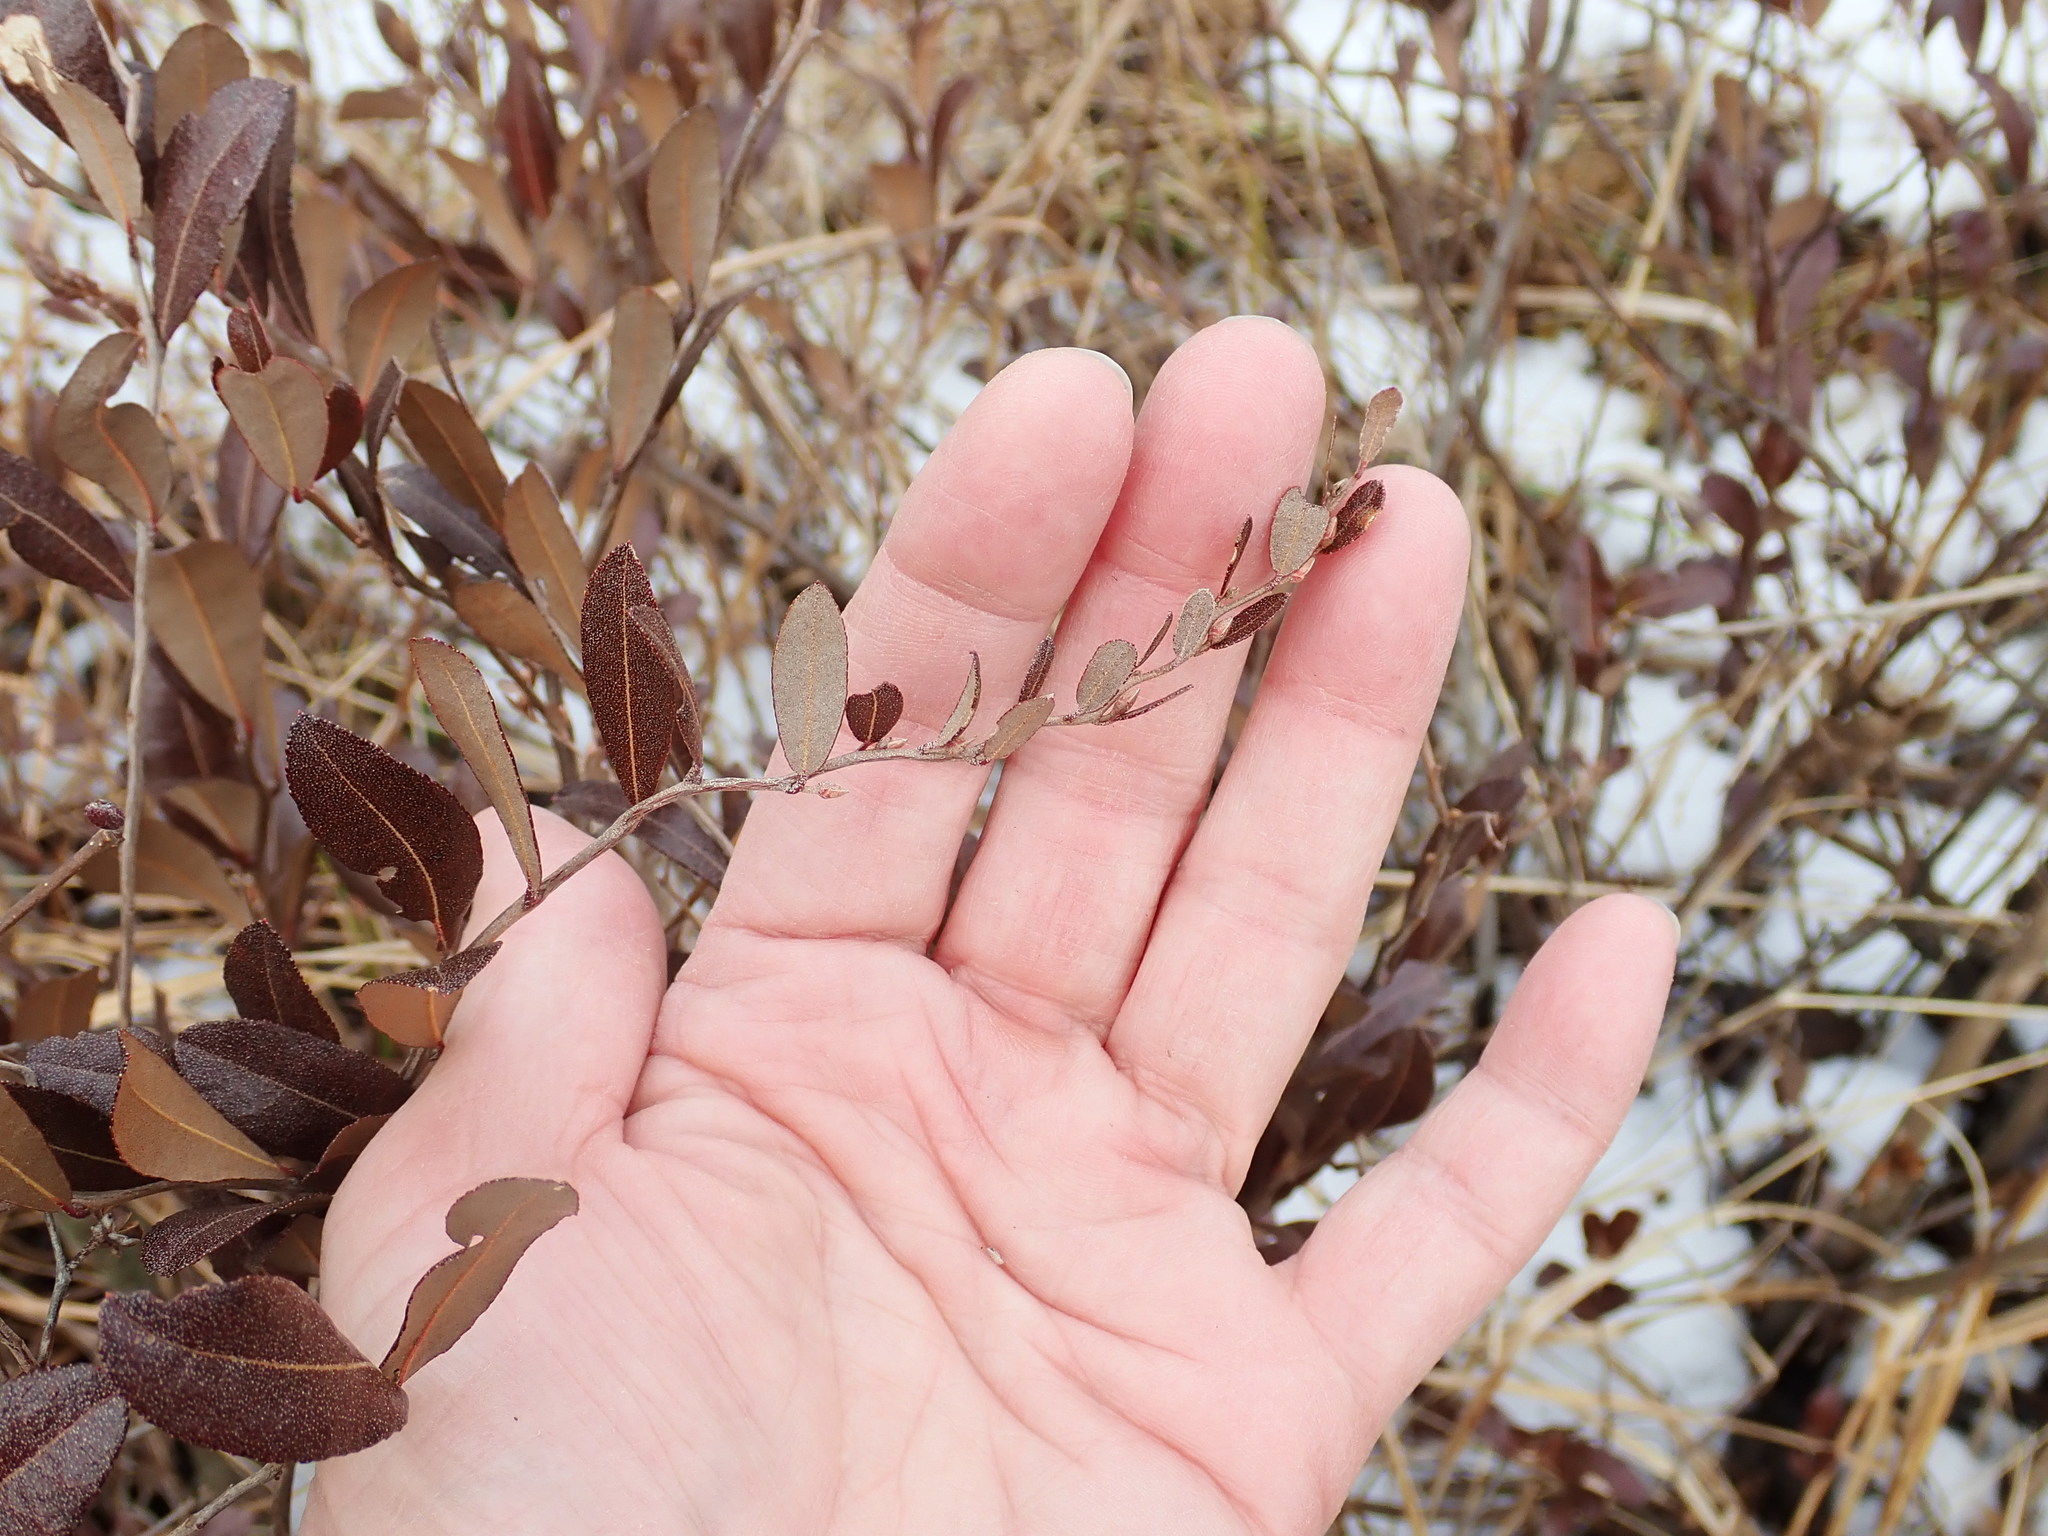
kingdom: Plantae
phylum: Tracheophyta
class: Magnoliopsida
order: Ericales
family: Ericaceae
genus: Chamaedaphne
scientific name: Chamaedaphne calyculata
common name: Leatherleaf
